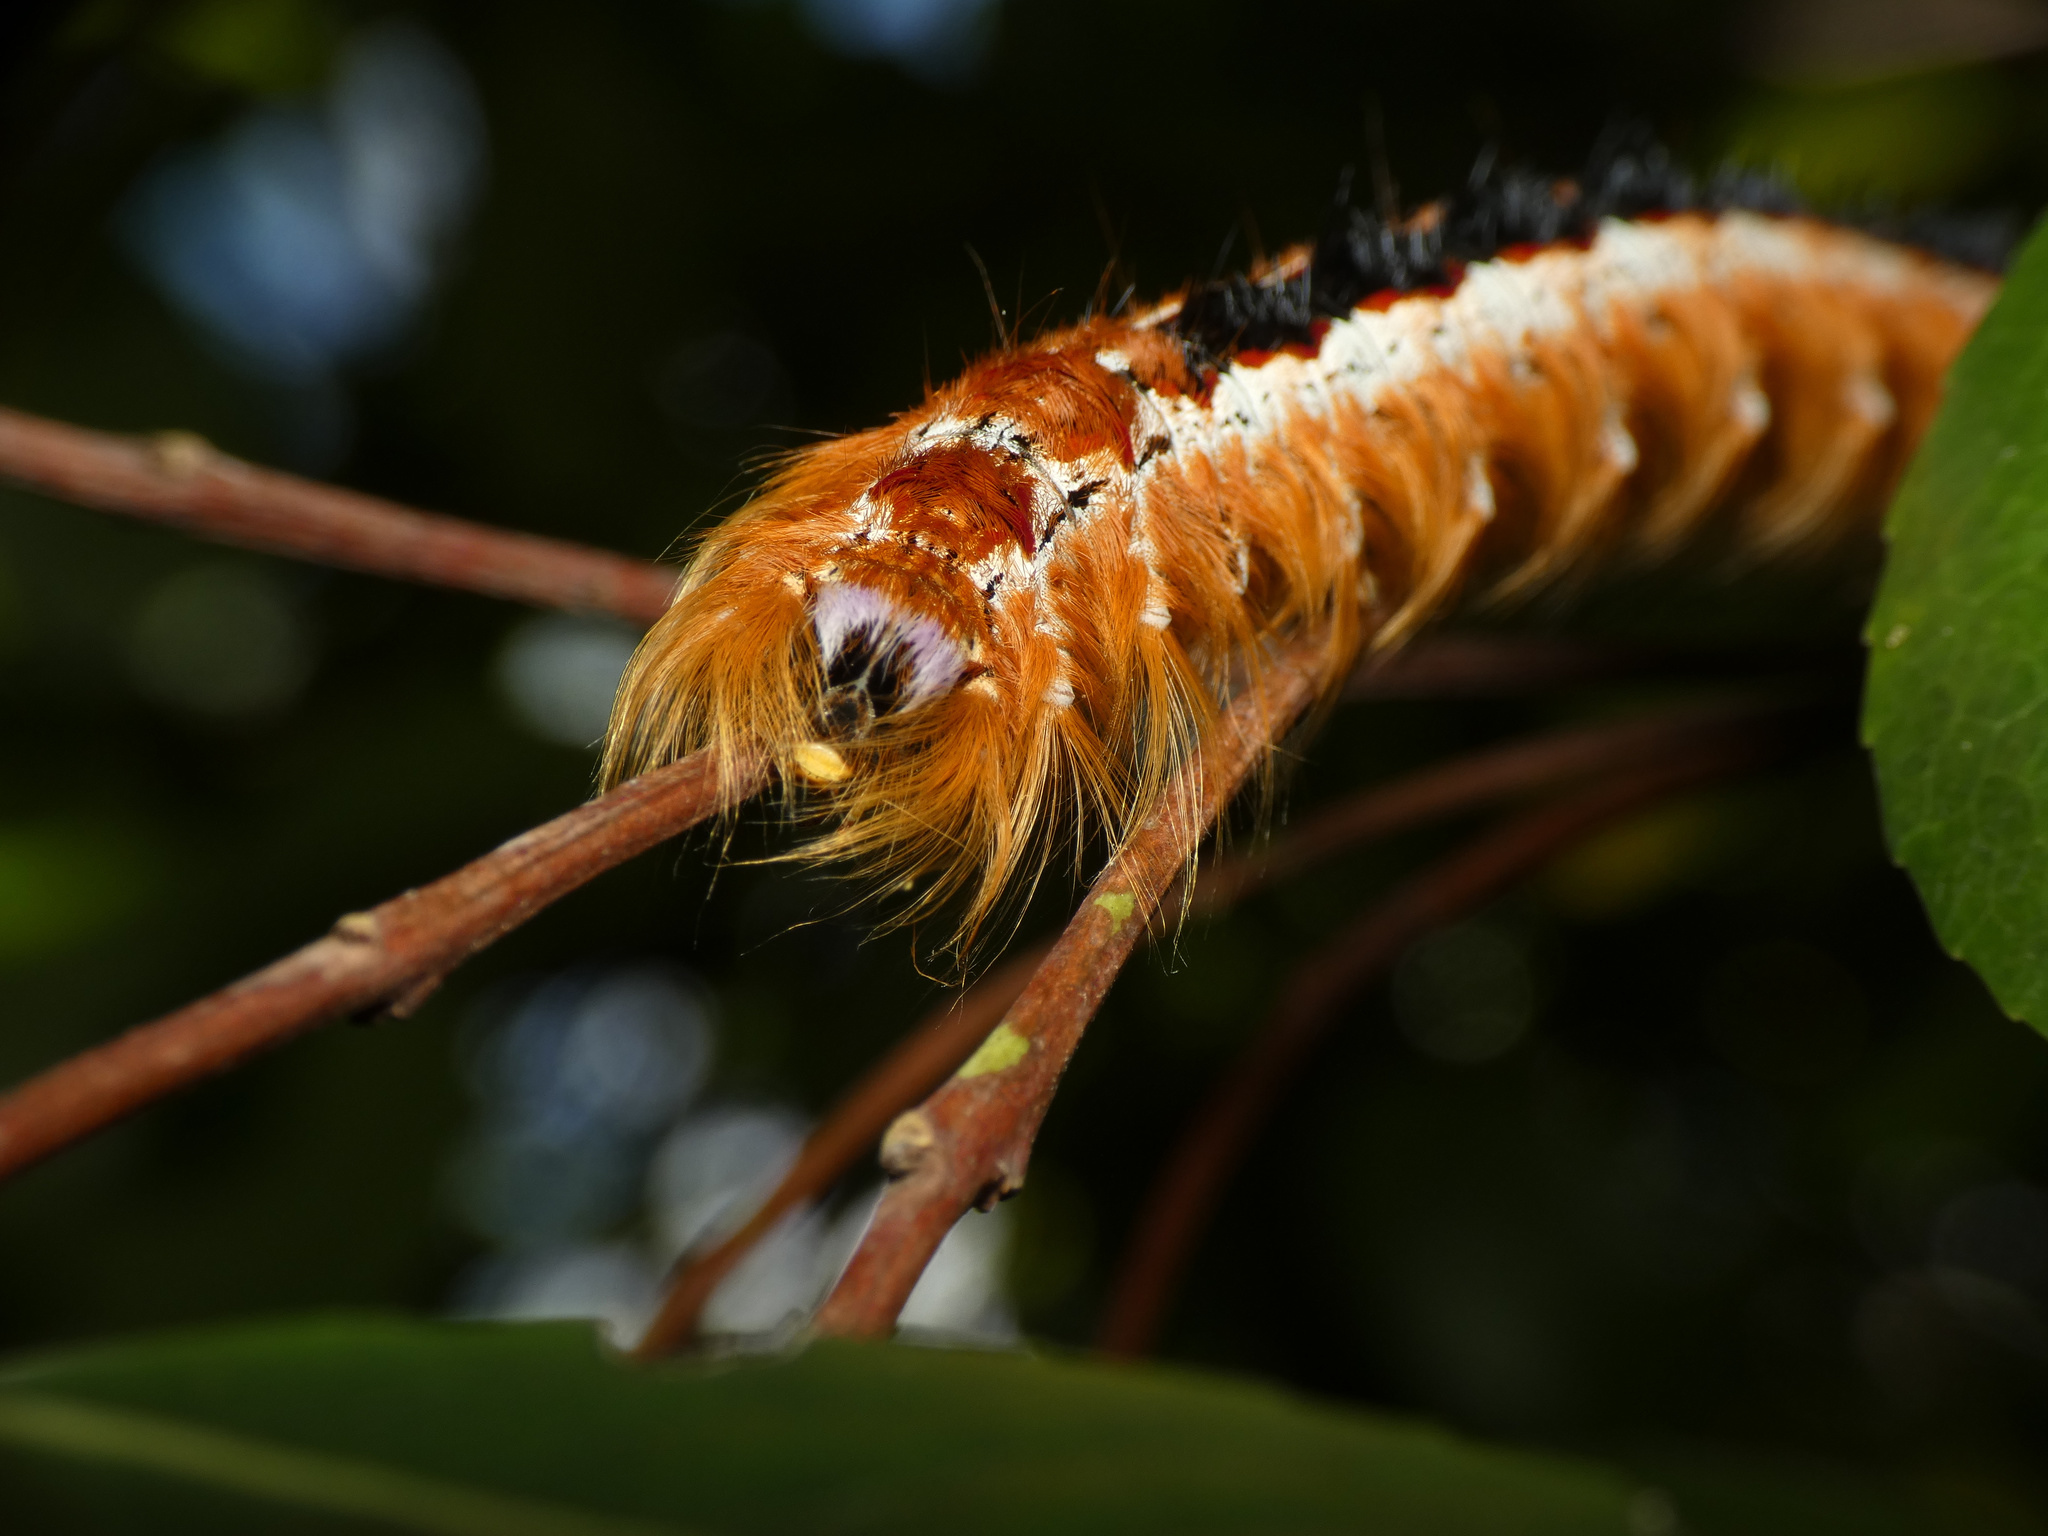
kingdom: Animalia
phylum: Arthropoda
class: Insecta
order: Lepidoptera
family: Lasiocampidae
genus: Eutricha
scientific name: Eutricha capensis
